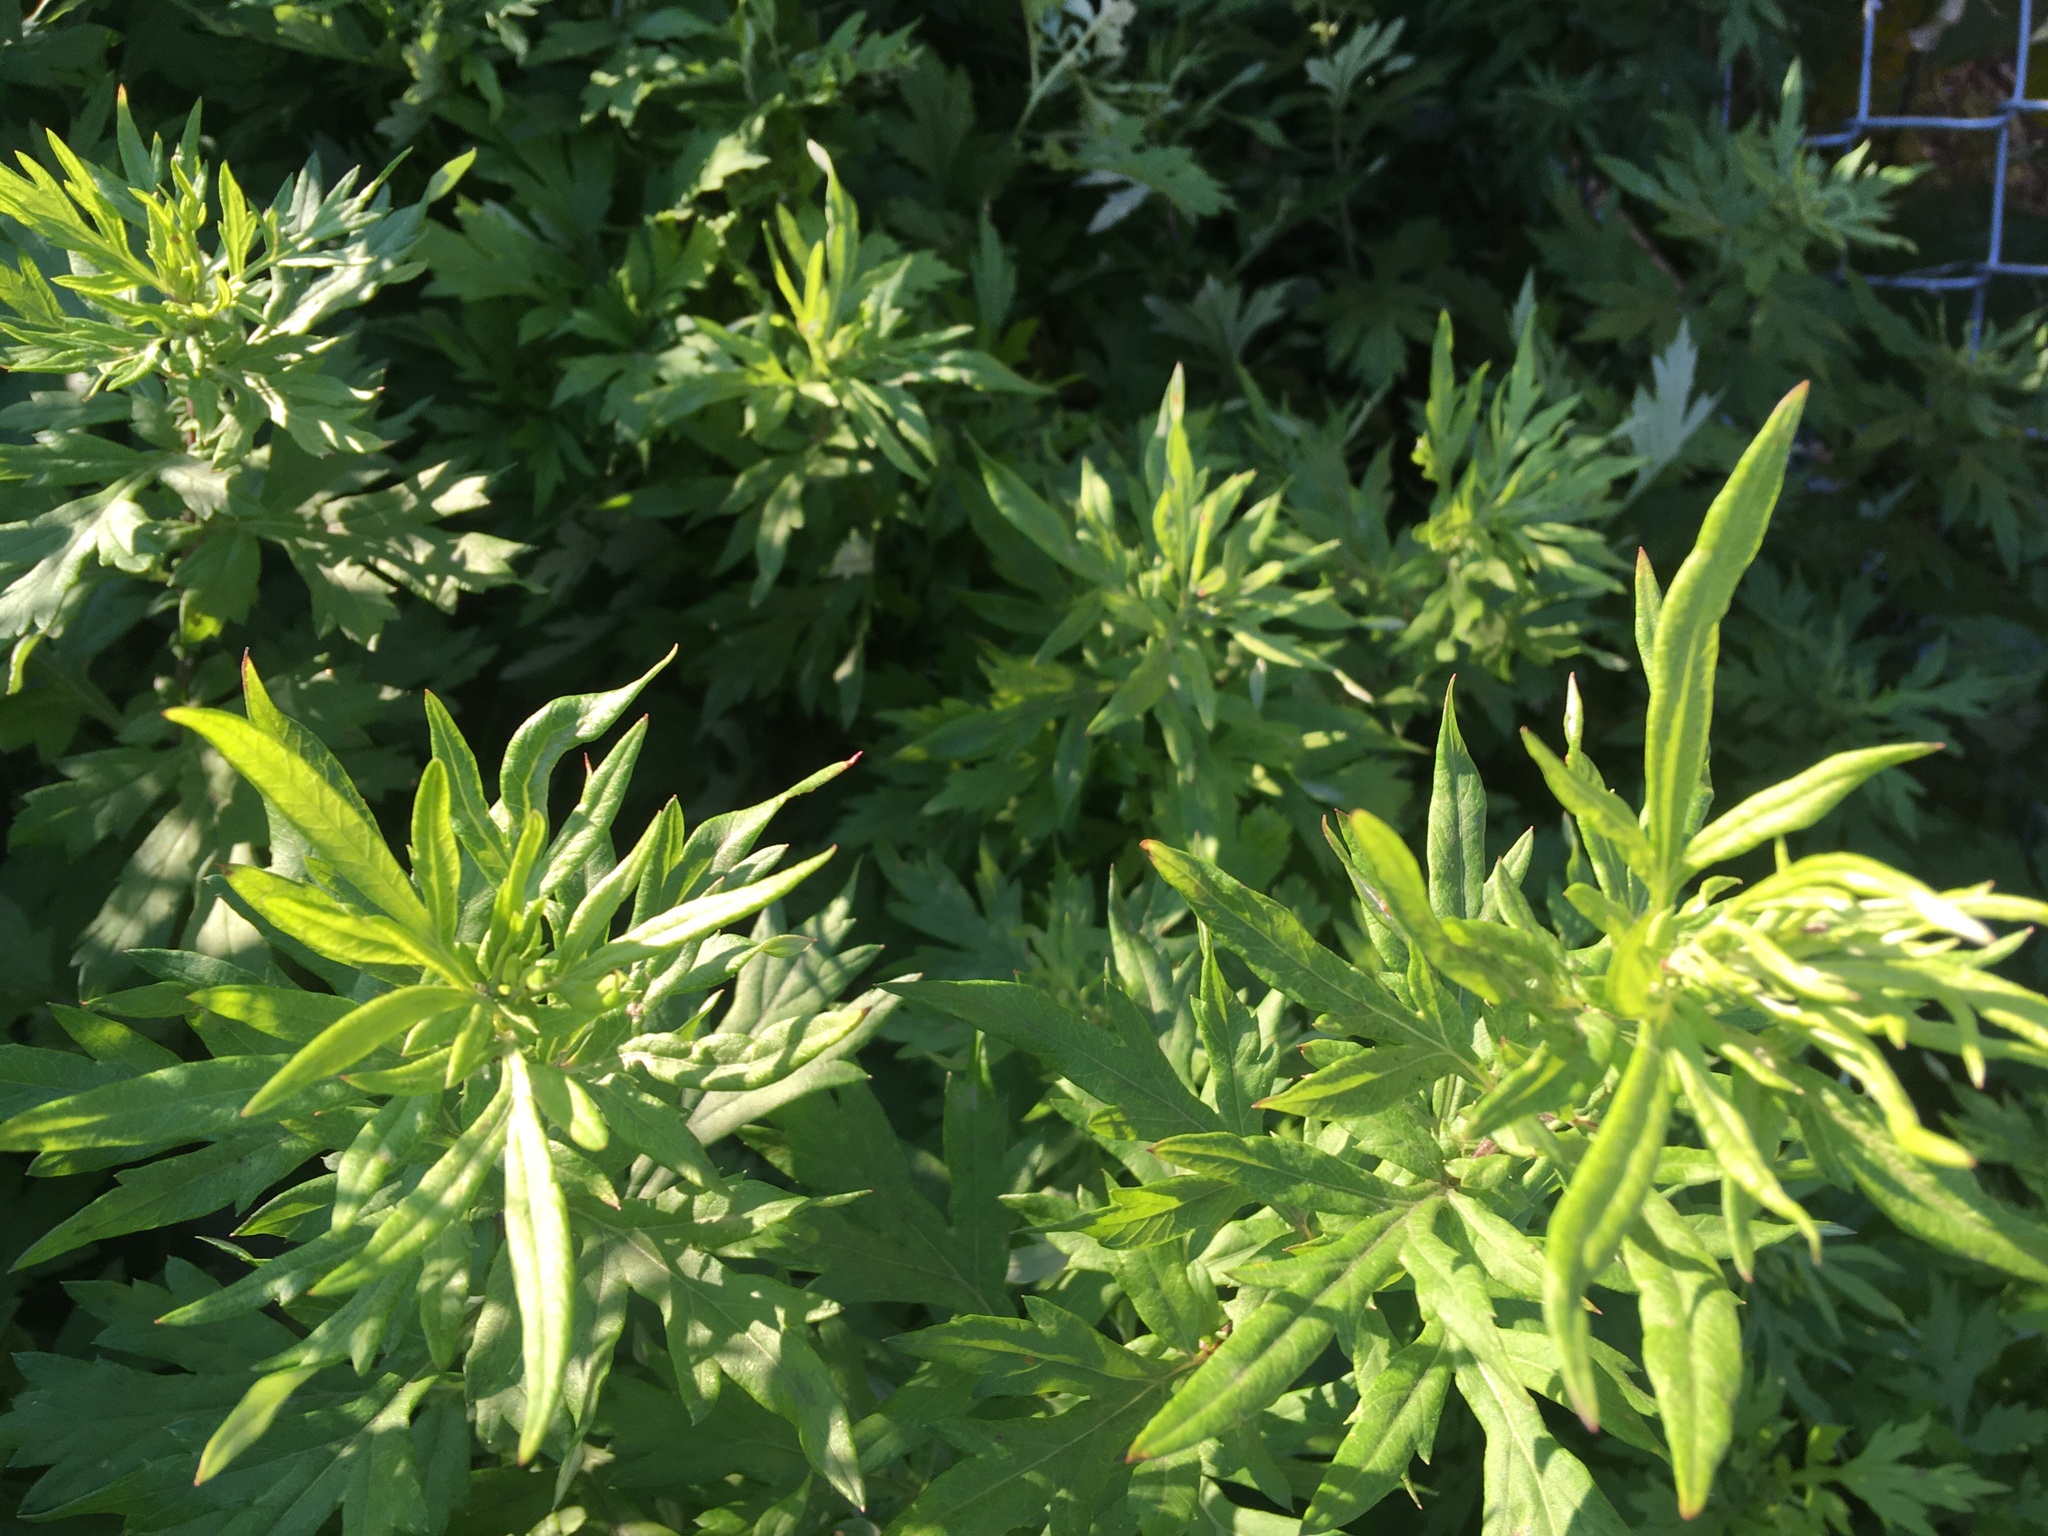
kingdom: Plantae
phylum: Tracheophyta
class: Magnoliopsida
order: Asterales
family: Asteraceae
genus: Artemisia
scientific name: Artemisia vulgaris
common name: Mugwort
